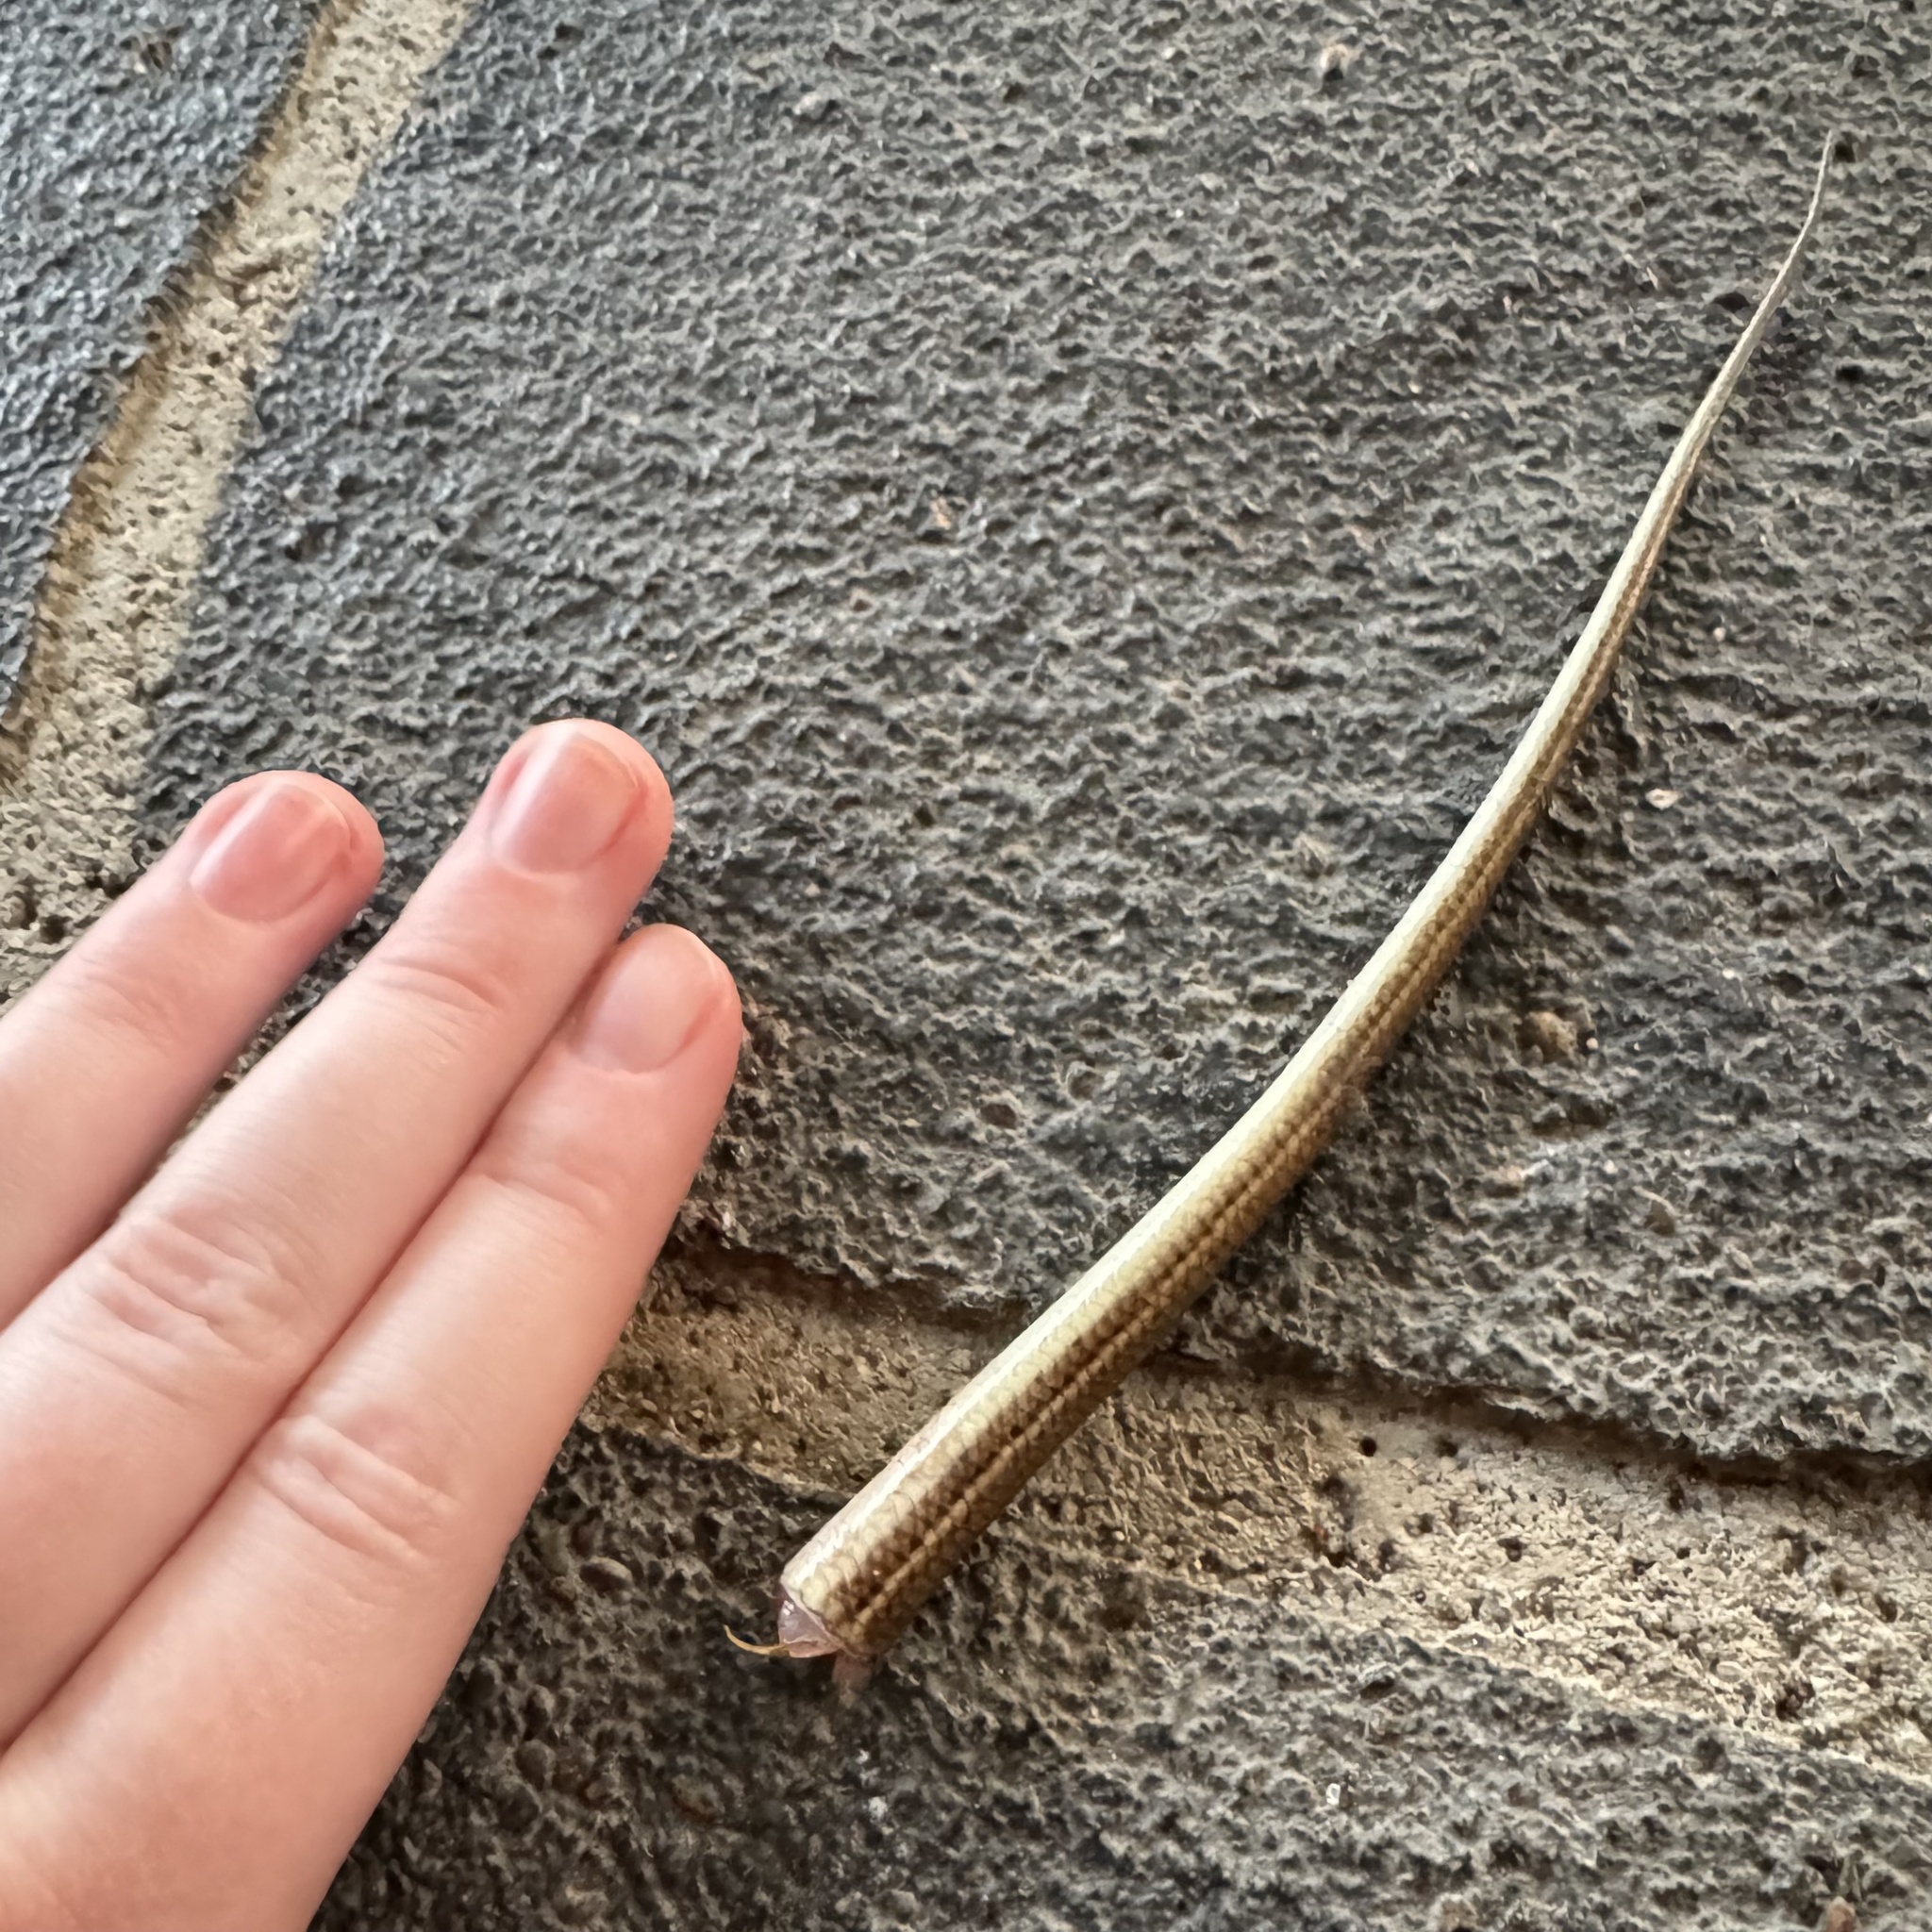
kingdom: Animalia
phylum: Chordata
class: Squamata
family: Scincidae
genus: Ctenotus
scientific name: Ctenotus robustus
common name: Robust ctenotus
